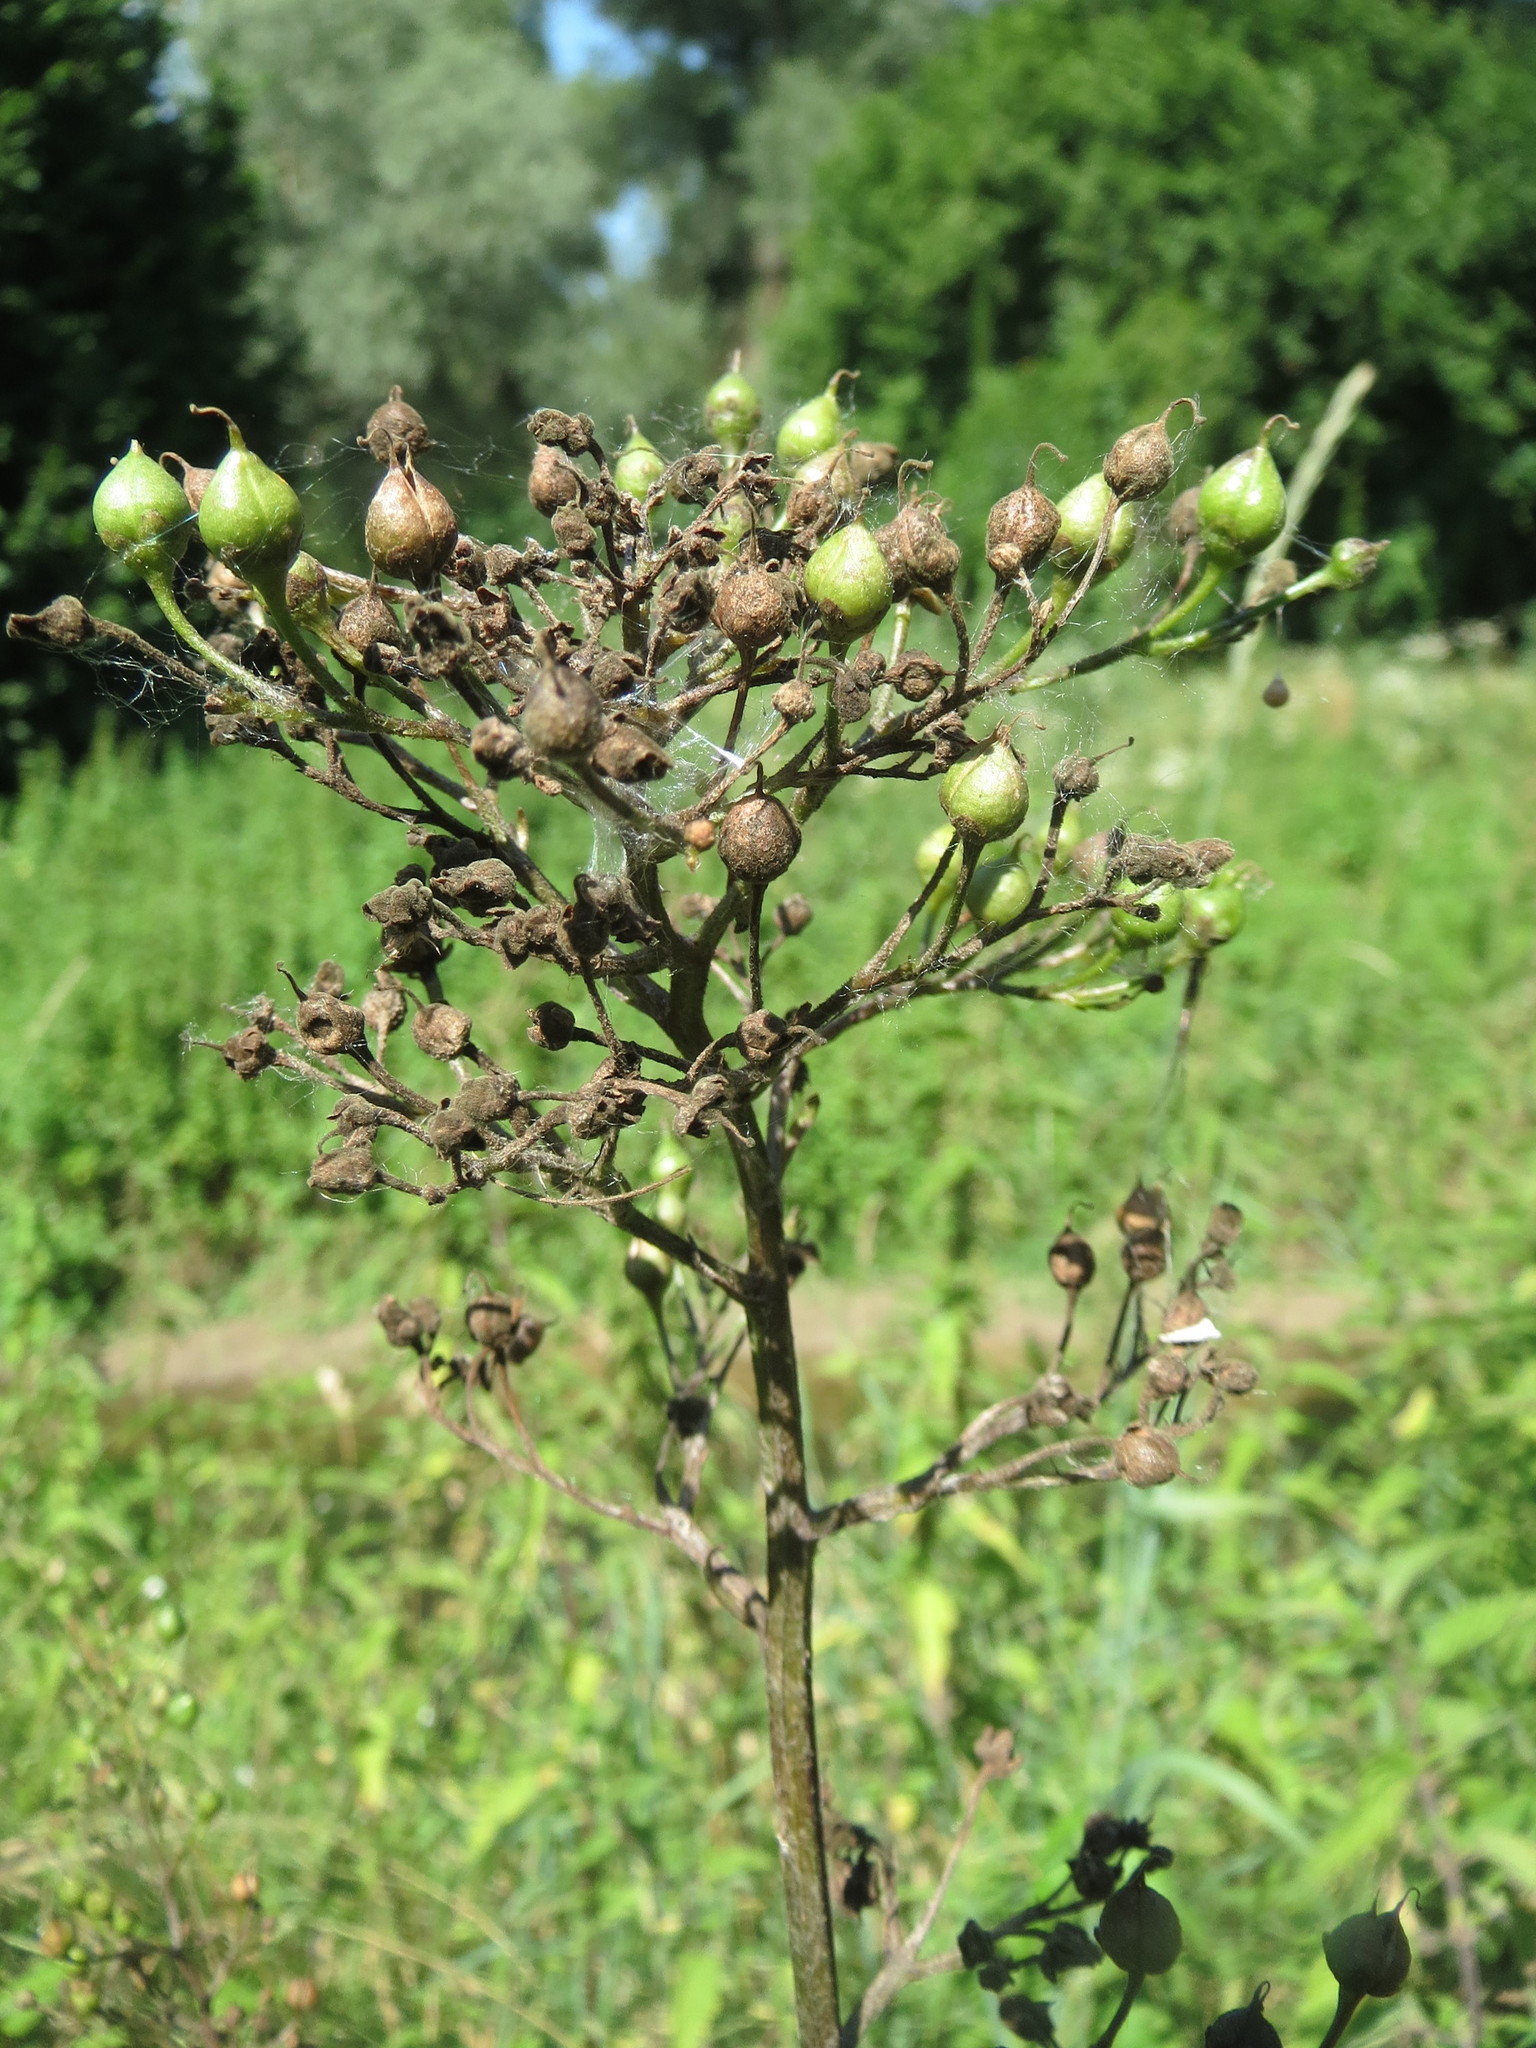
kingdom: Plantae
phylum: Tracheophyta
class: Magnoliopsida
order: Ericales
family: Primulaceae
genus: Lysimachia
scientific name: Lysimachia vulgaris
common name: Yellow loosestrife
